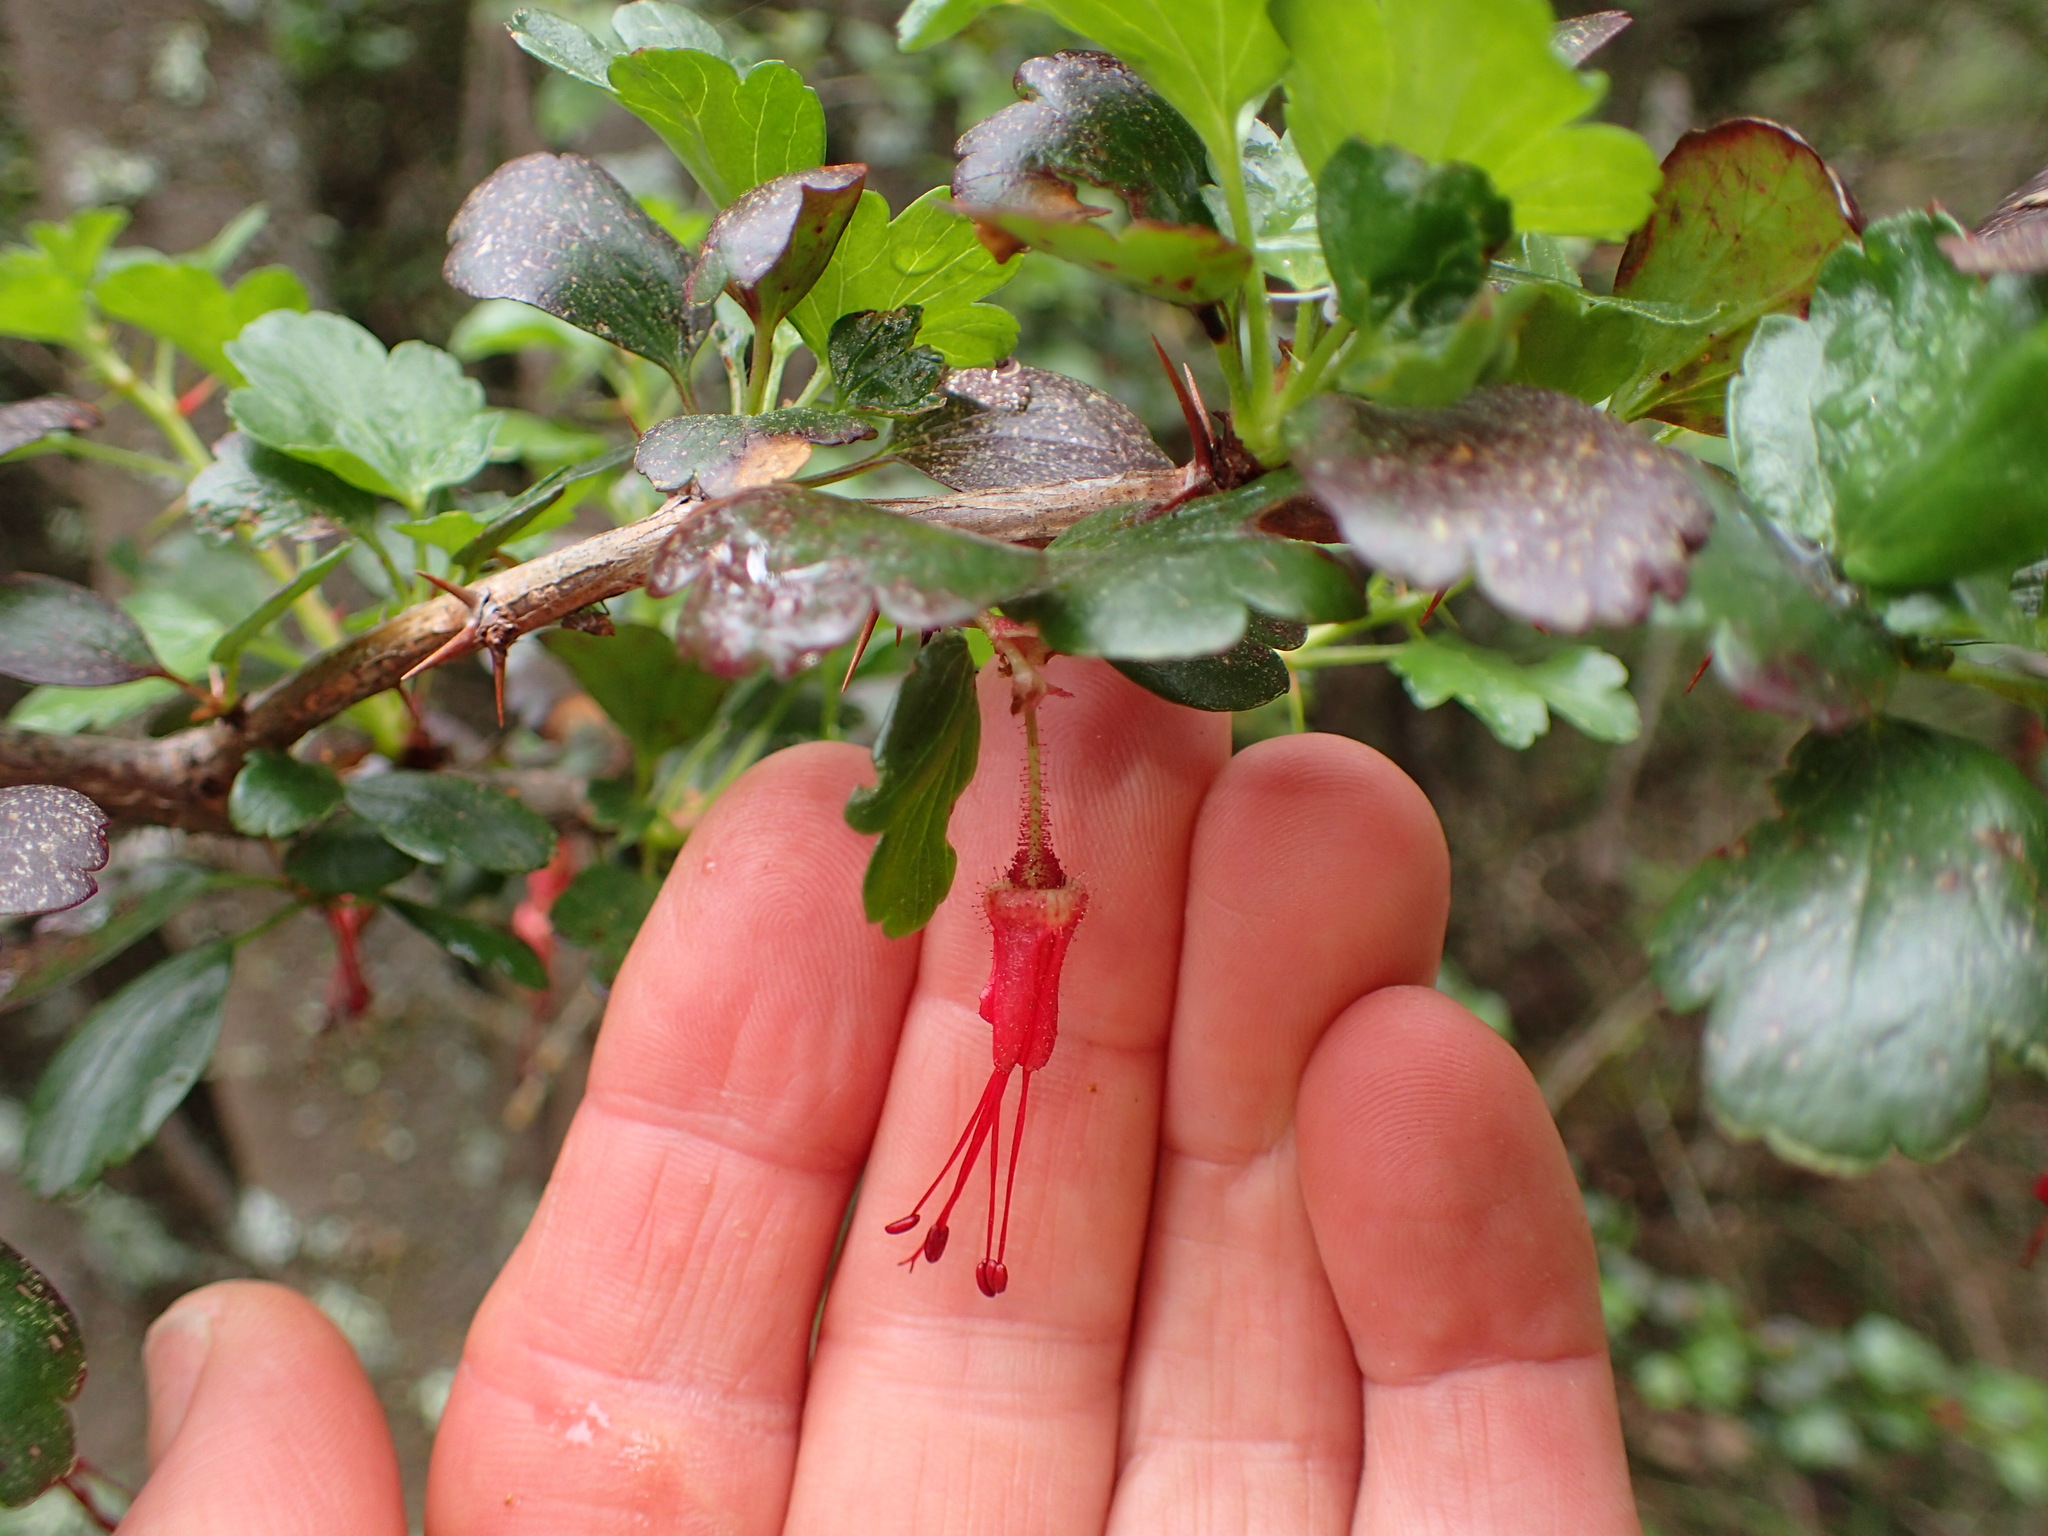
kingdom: Plantae
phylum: Tracheophyta
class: Magnoliopsida
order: Saxifragales
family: Grossulariaceae
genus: Ribes
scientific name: Ribes speciosum
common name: Fuchsia-flower gooseberry
